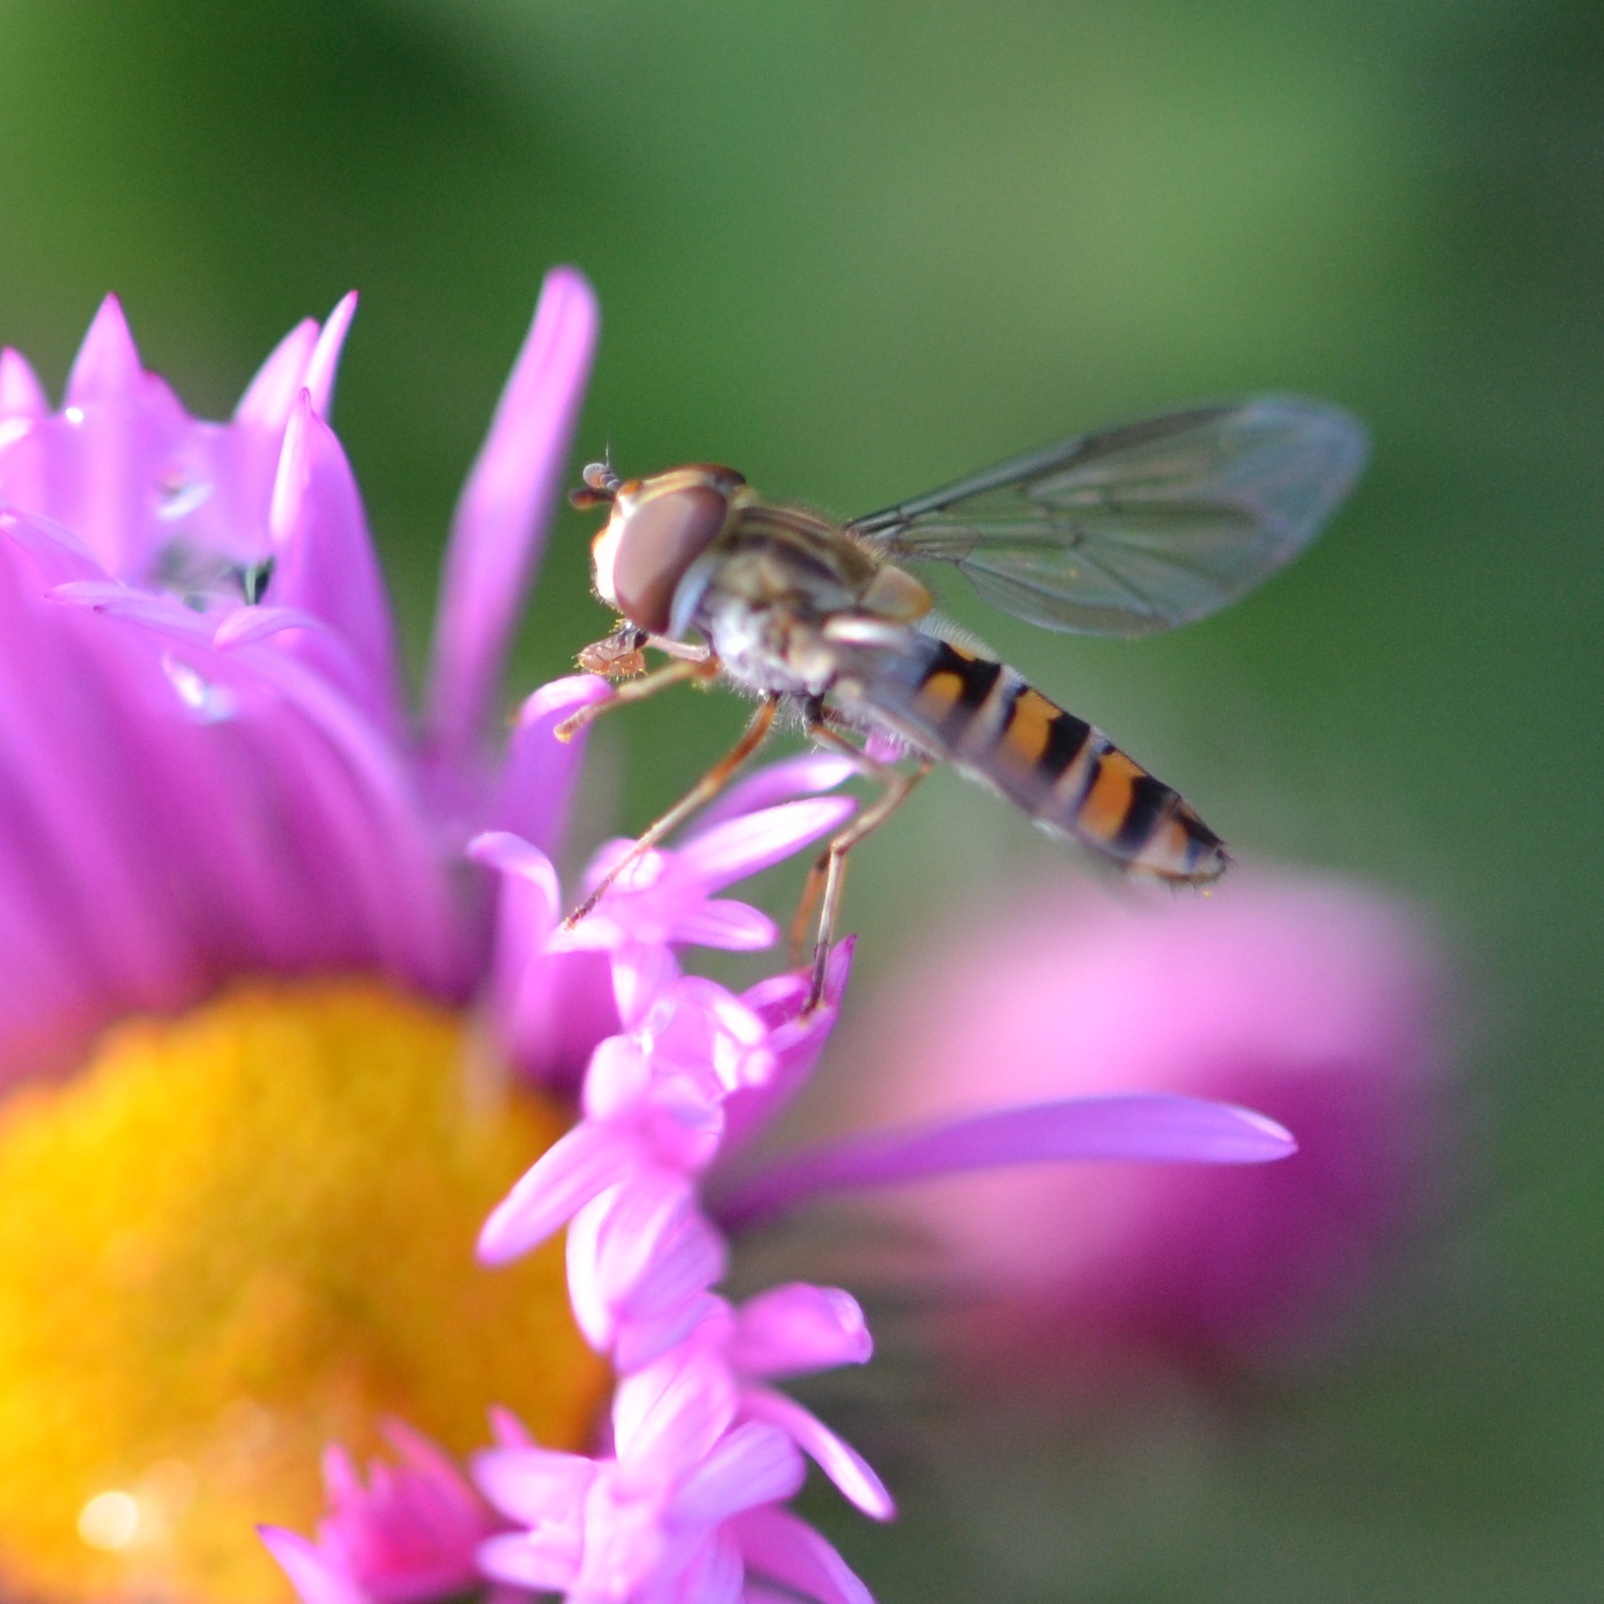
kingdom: Animalia
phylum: Arthropoda
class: Insecta
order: Diptera
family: Syrphidae
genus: Episyrphus
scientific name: Episyrphus balteatus
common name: Marmalade hoverfly
